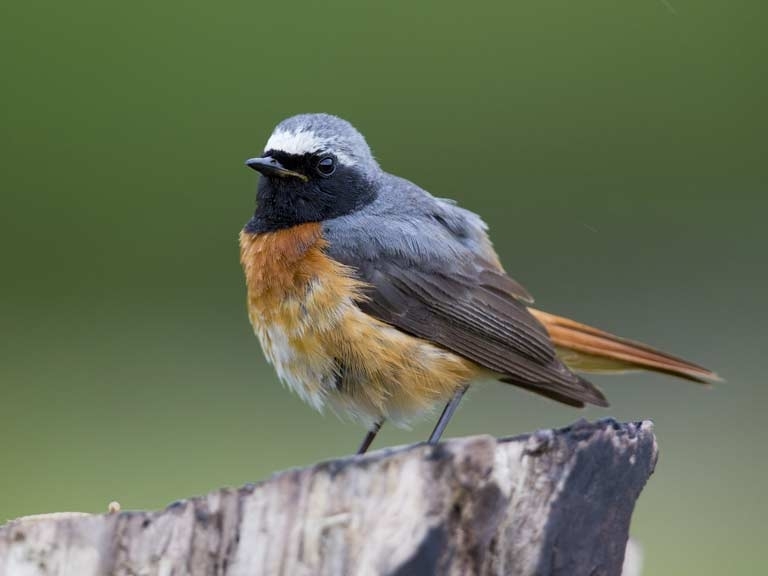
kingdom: Animalia
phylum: Chordata
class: Aves
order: Passeriformes
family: Muscicapidae
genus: Phoenicurus
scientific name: Phoenicurus phoenicurus
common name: Common redstart
